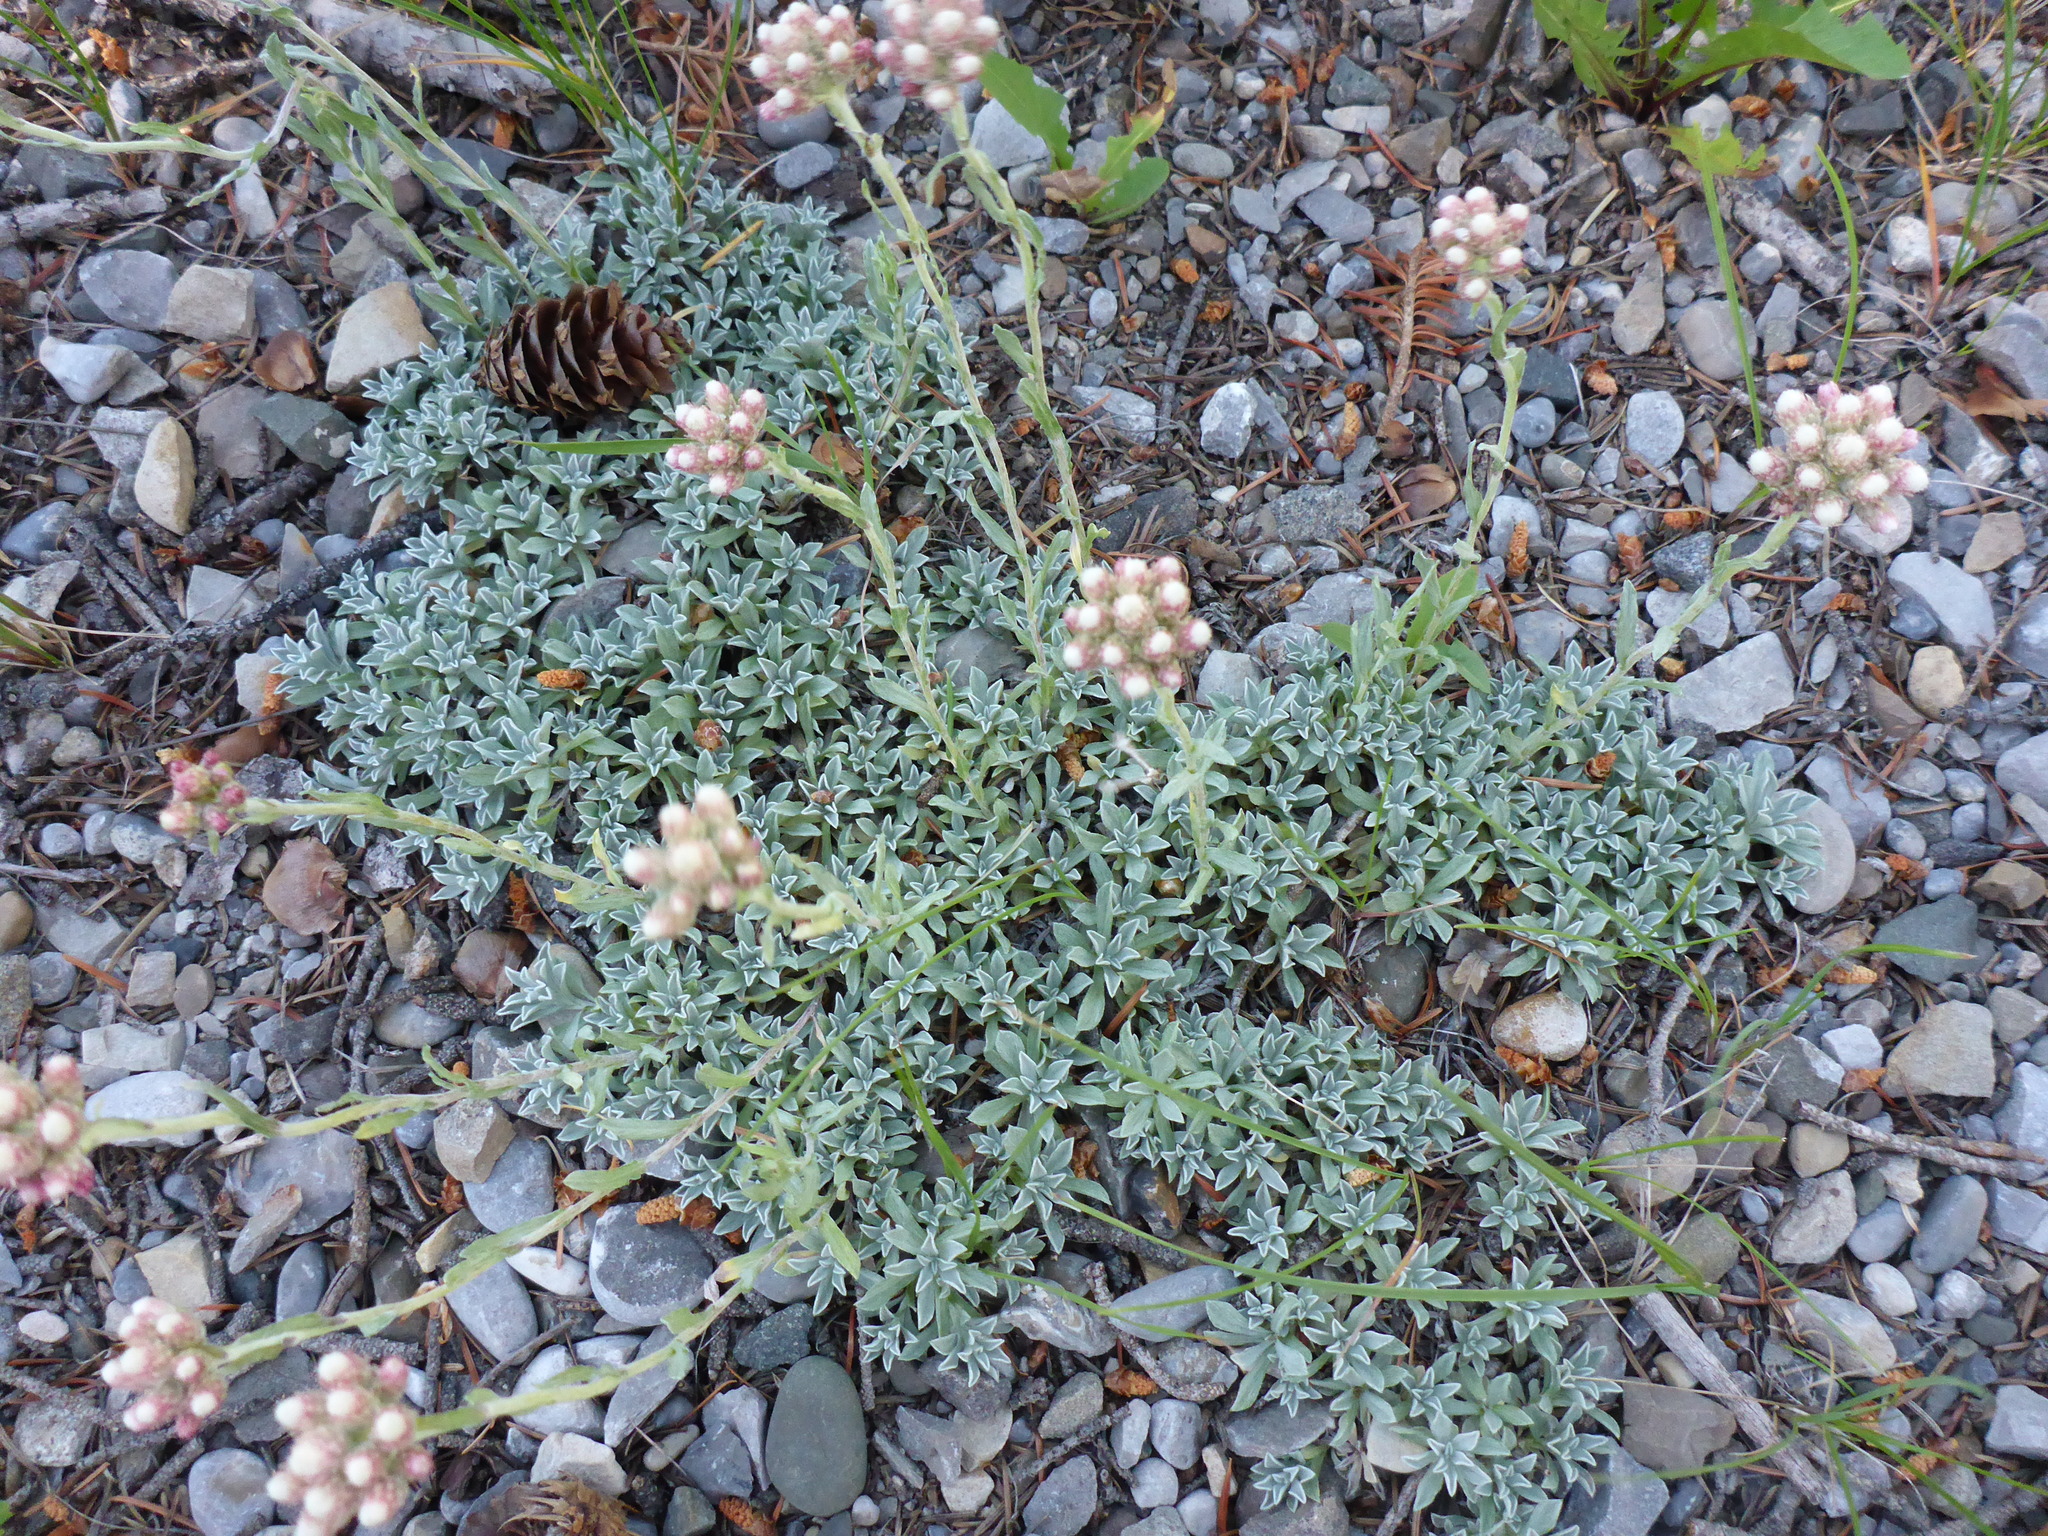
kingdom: Plantae
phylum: Tracheophyta
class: Magnoliopsida
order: Asterales
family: Asteraceae
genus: Antennaria
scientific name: Antennaria rosea
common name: Rosy pussytoes
